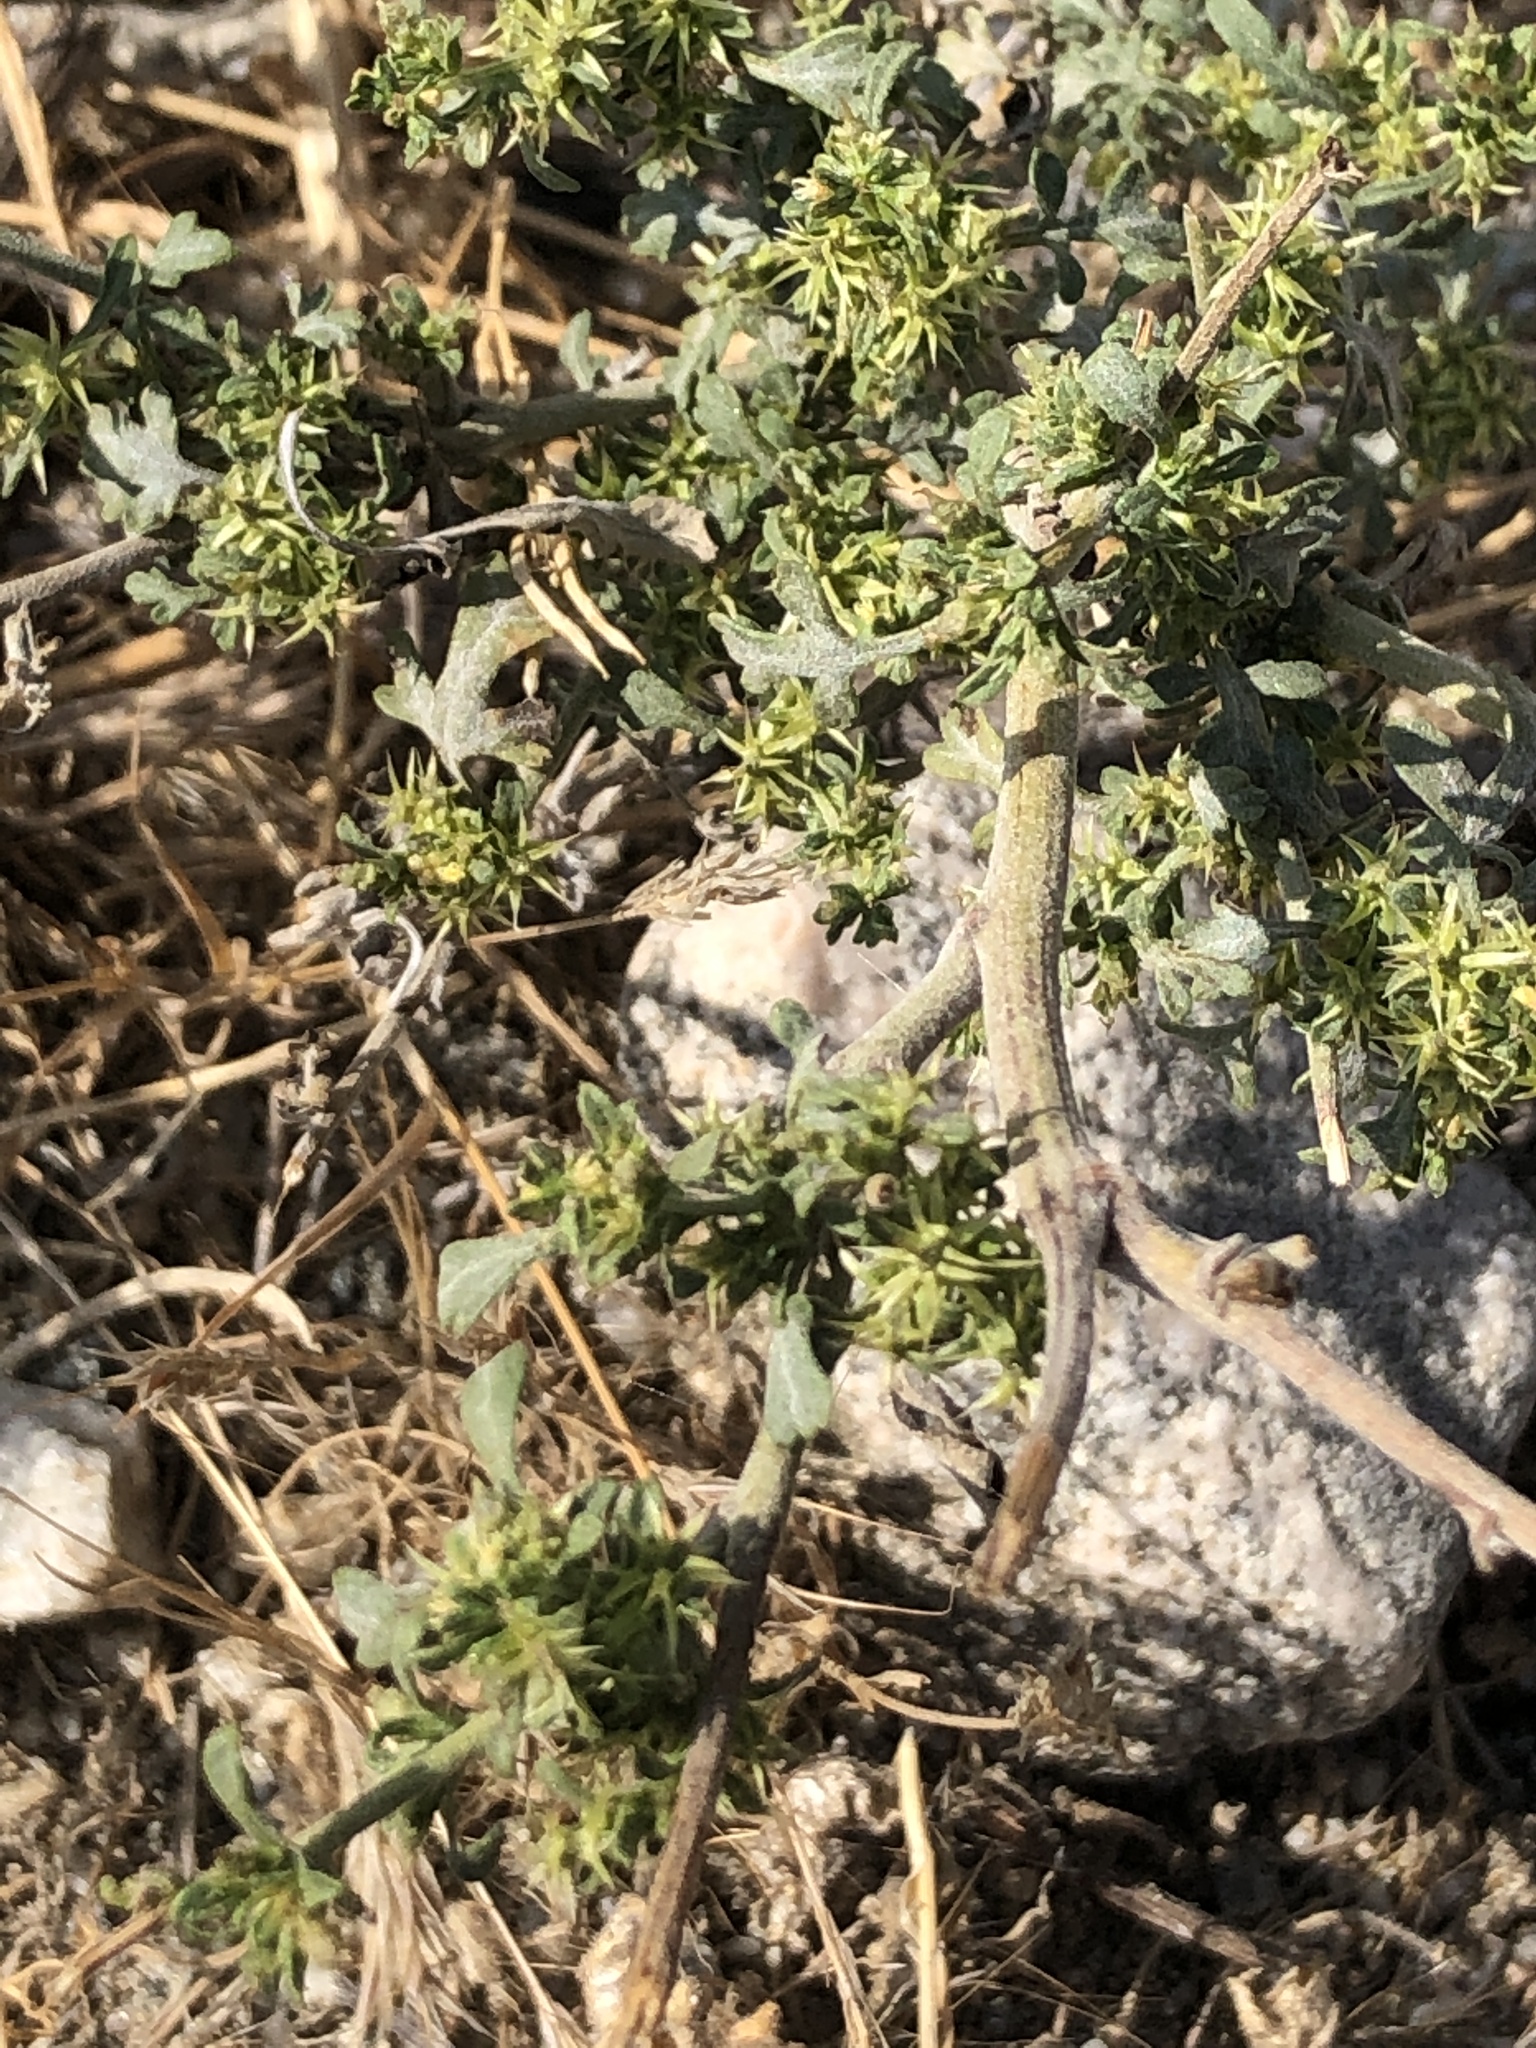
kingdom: Plantae
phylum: Tracheophyta
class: Magnoliopsida
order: Asterales
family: Asteraceae
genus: Ambrosia
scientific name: Ambrosia acanthicarpa
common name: Hooker's bur ragweed
